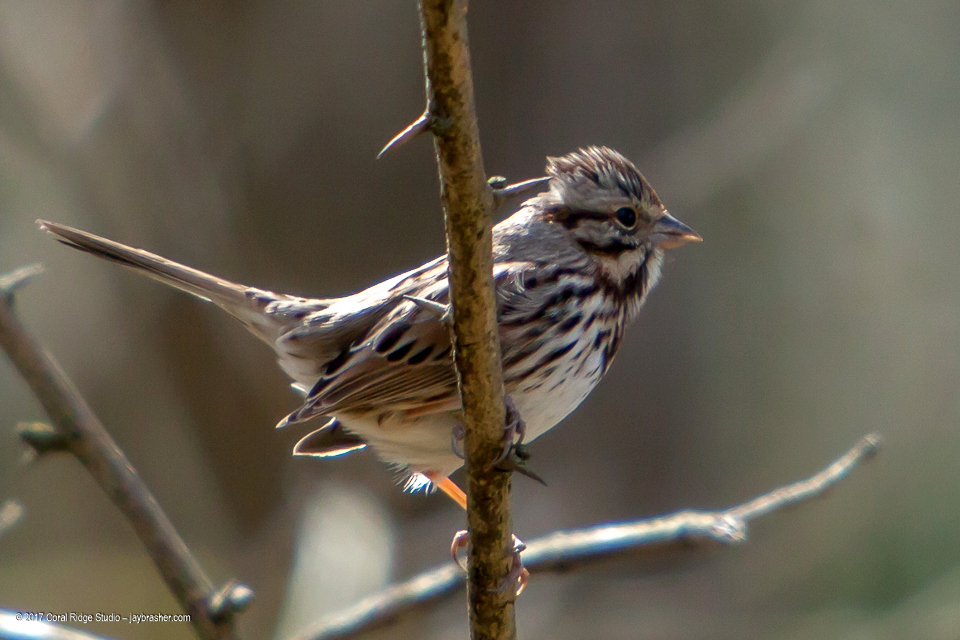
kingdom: Animalia
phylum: Chordata
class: Aves
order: Passeriformes
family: Passerellidae
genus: Melospiza
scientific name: Melospiza melodia
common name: Song sparrow
